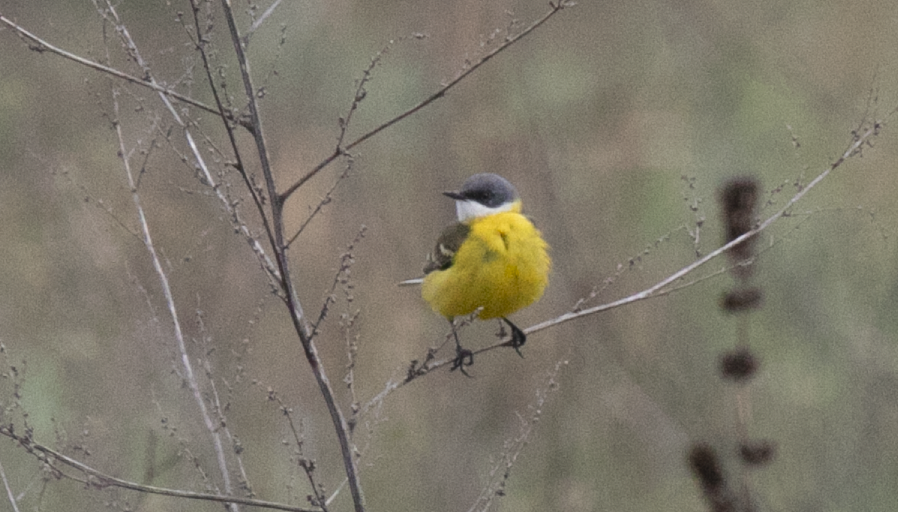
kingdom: Animalia
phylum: Chordata
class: Aves
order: Passeriformes
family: Motacillidae
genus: Motacilla
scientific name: Motacilla flava
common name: Western yellow wagtail
